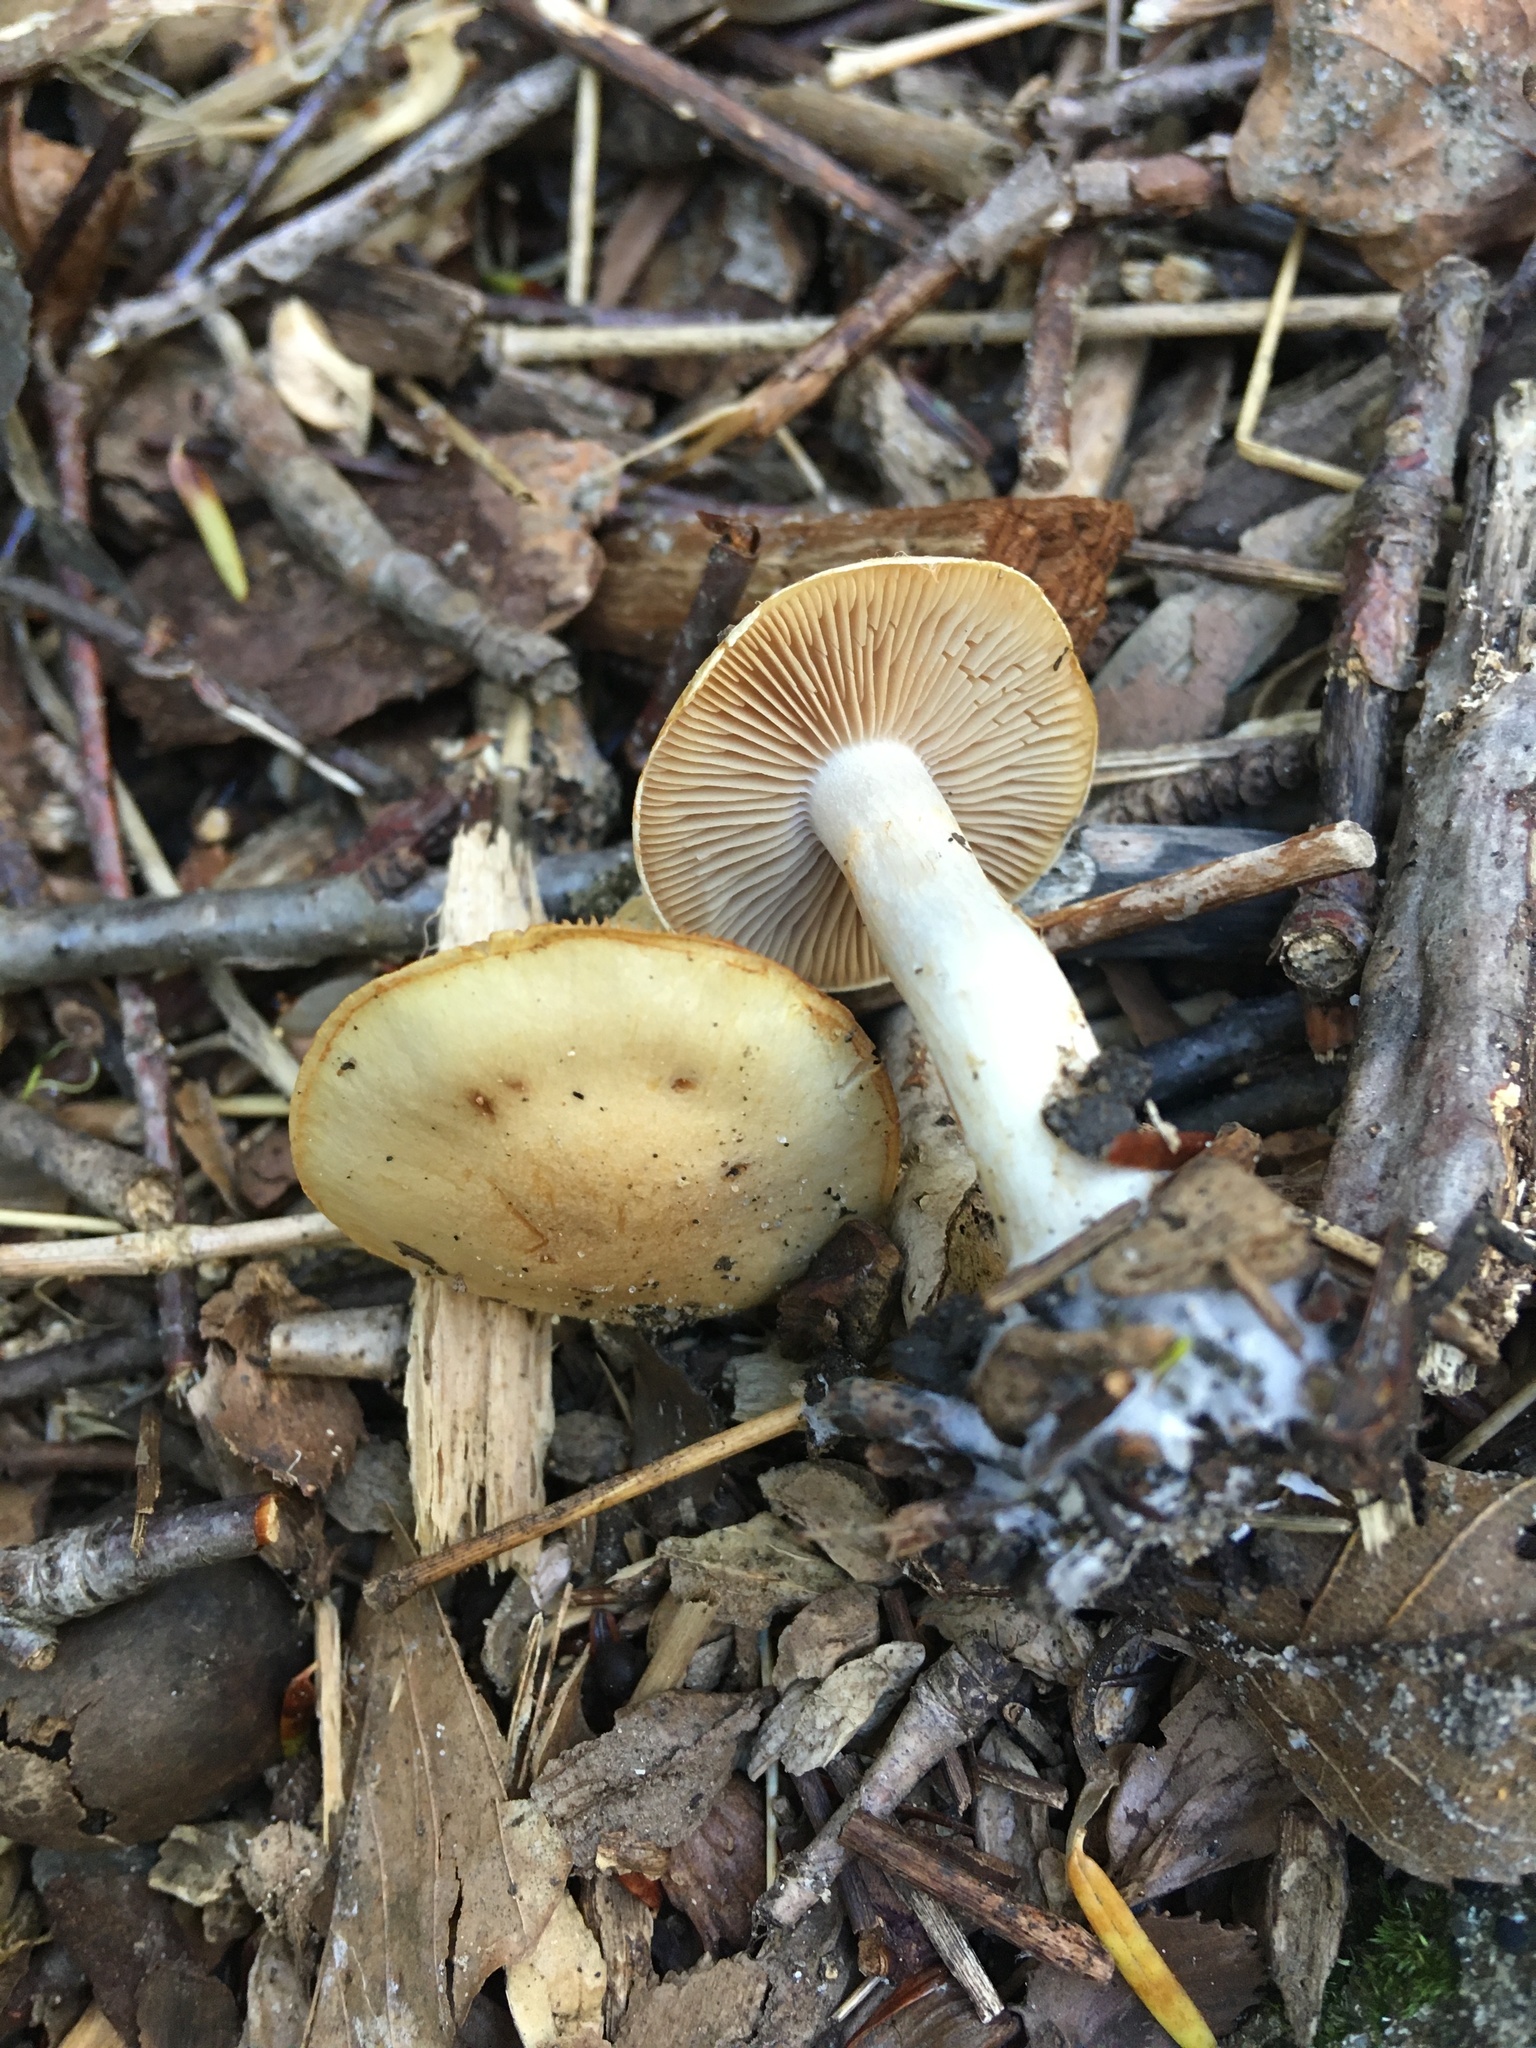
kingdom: Fungi
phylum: Basidiomycota
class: Agaricomycetes
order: Agaricales
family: Cortinariaceae
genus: Cortinarius
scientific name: Cortinarius brevissimus
